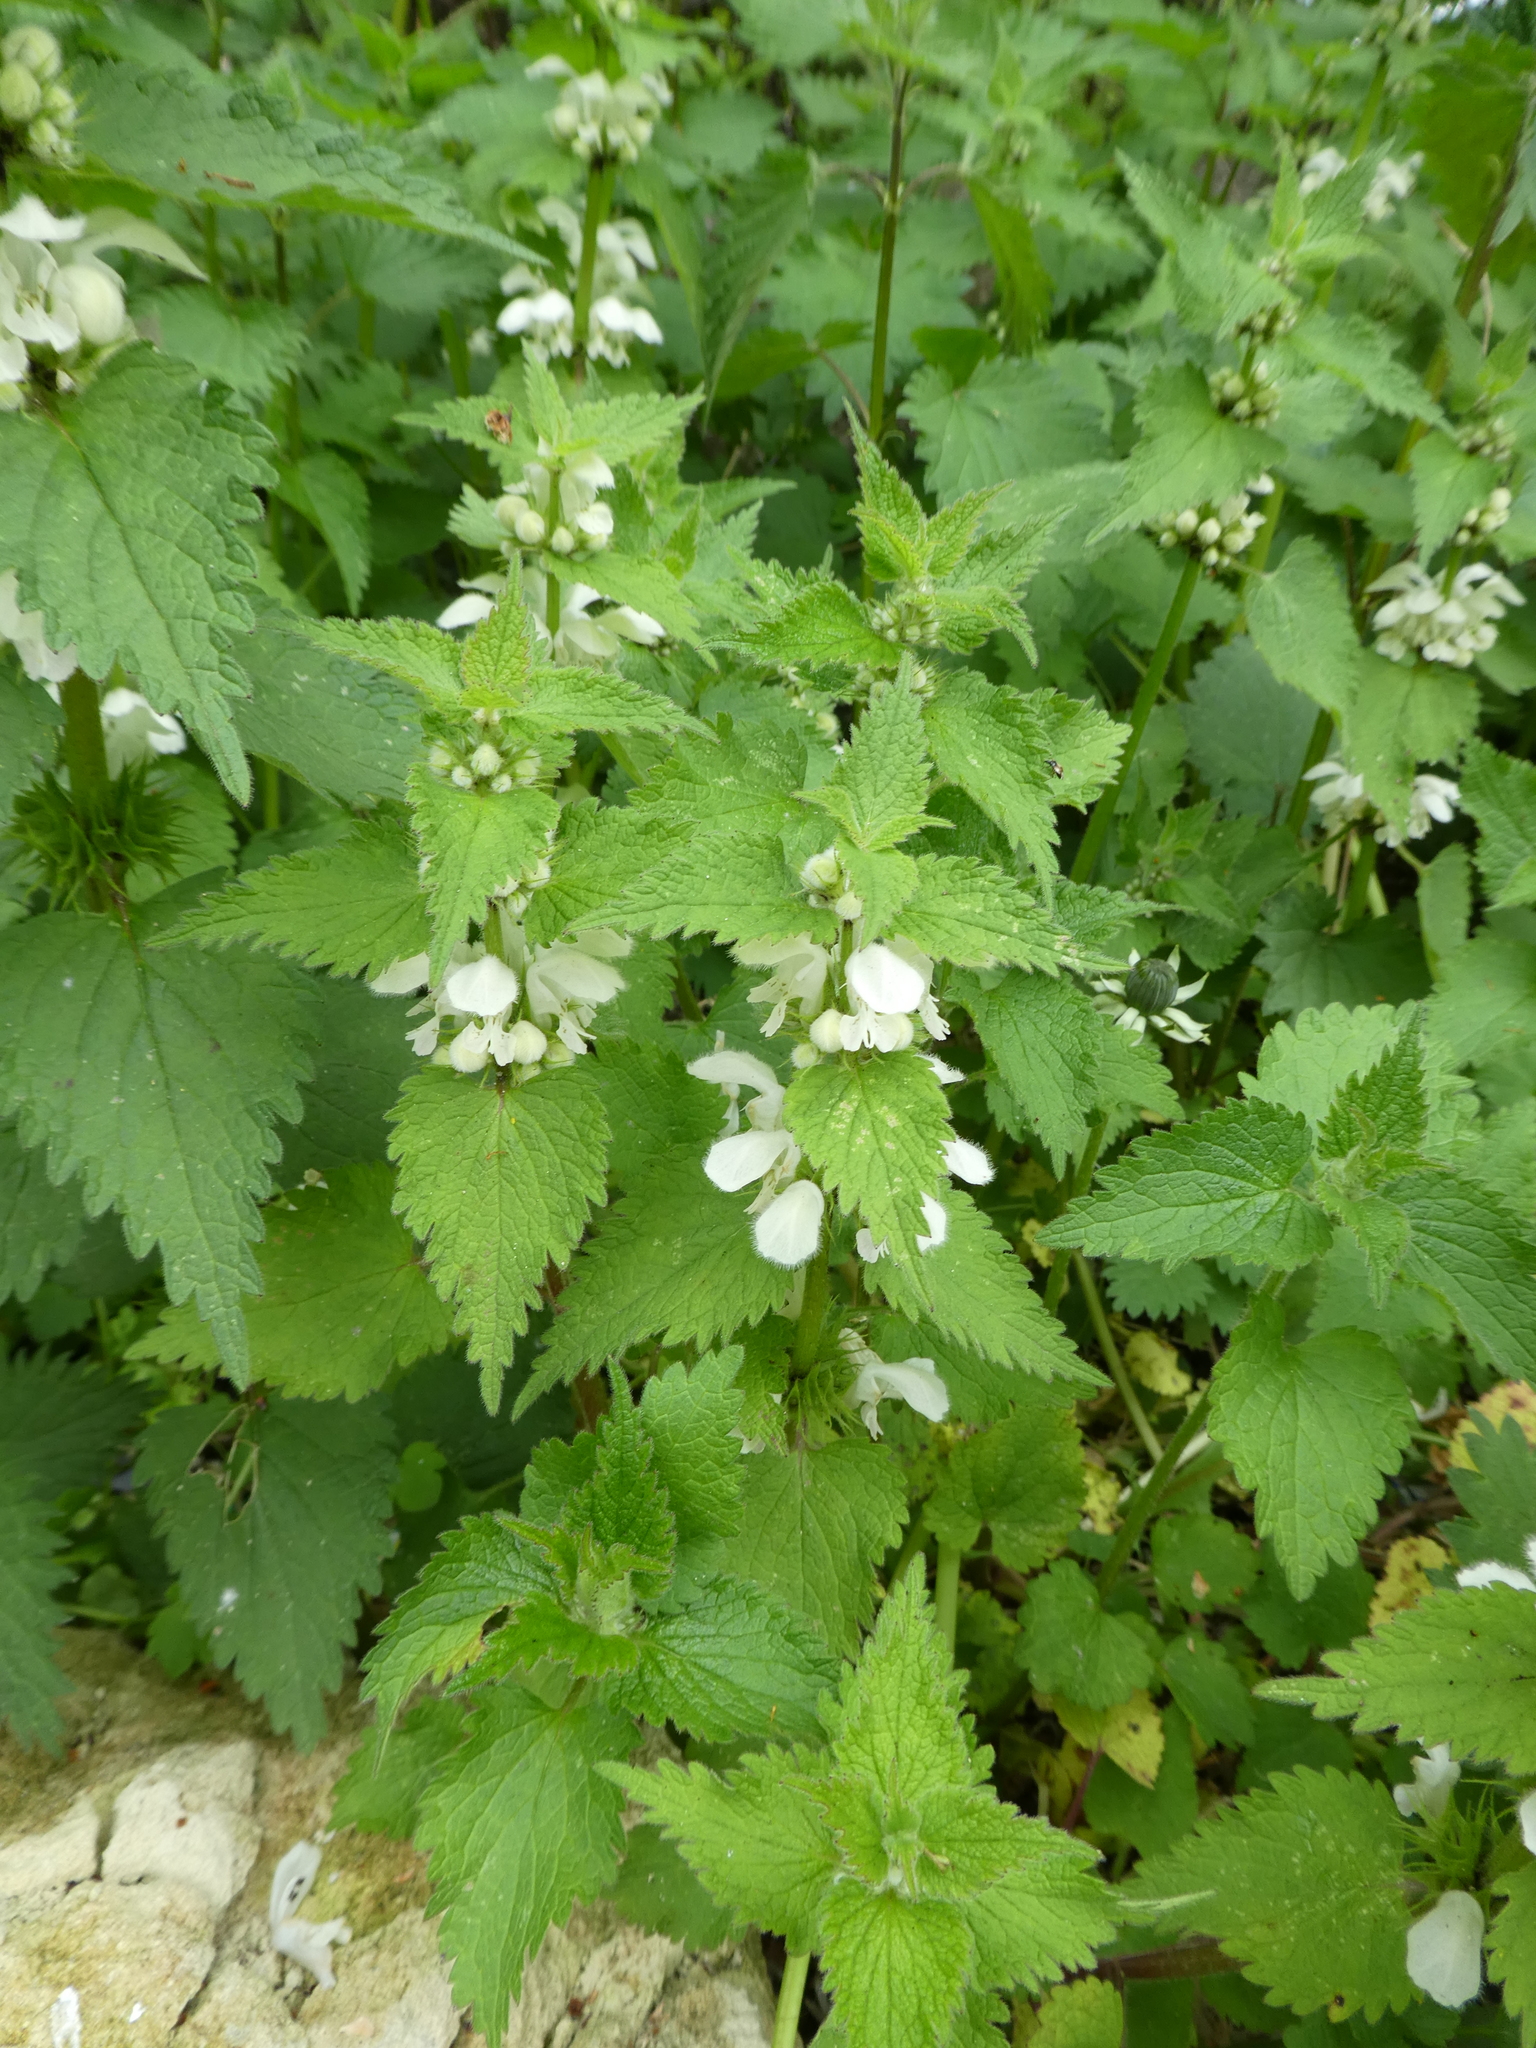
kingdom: Plantae
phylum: Tracheophyta
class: Magnoliopsida
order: Lamiales
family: Lamiaceae
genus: Lamium
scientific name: Lamium album
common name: White dead-nettle
